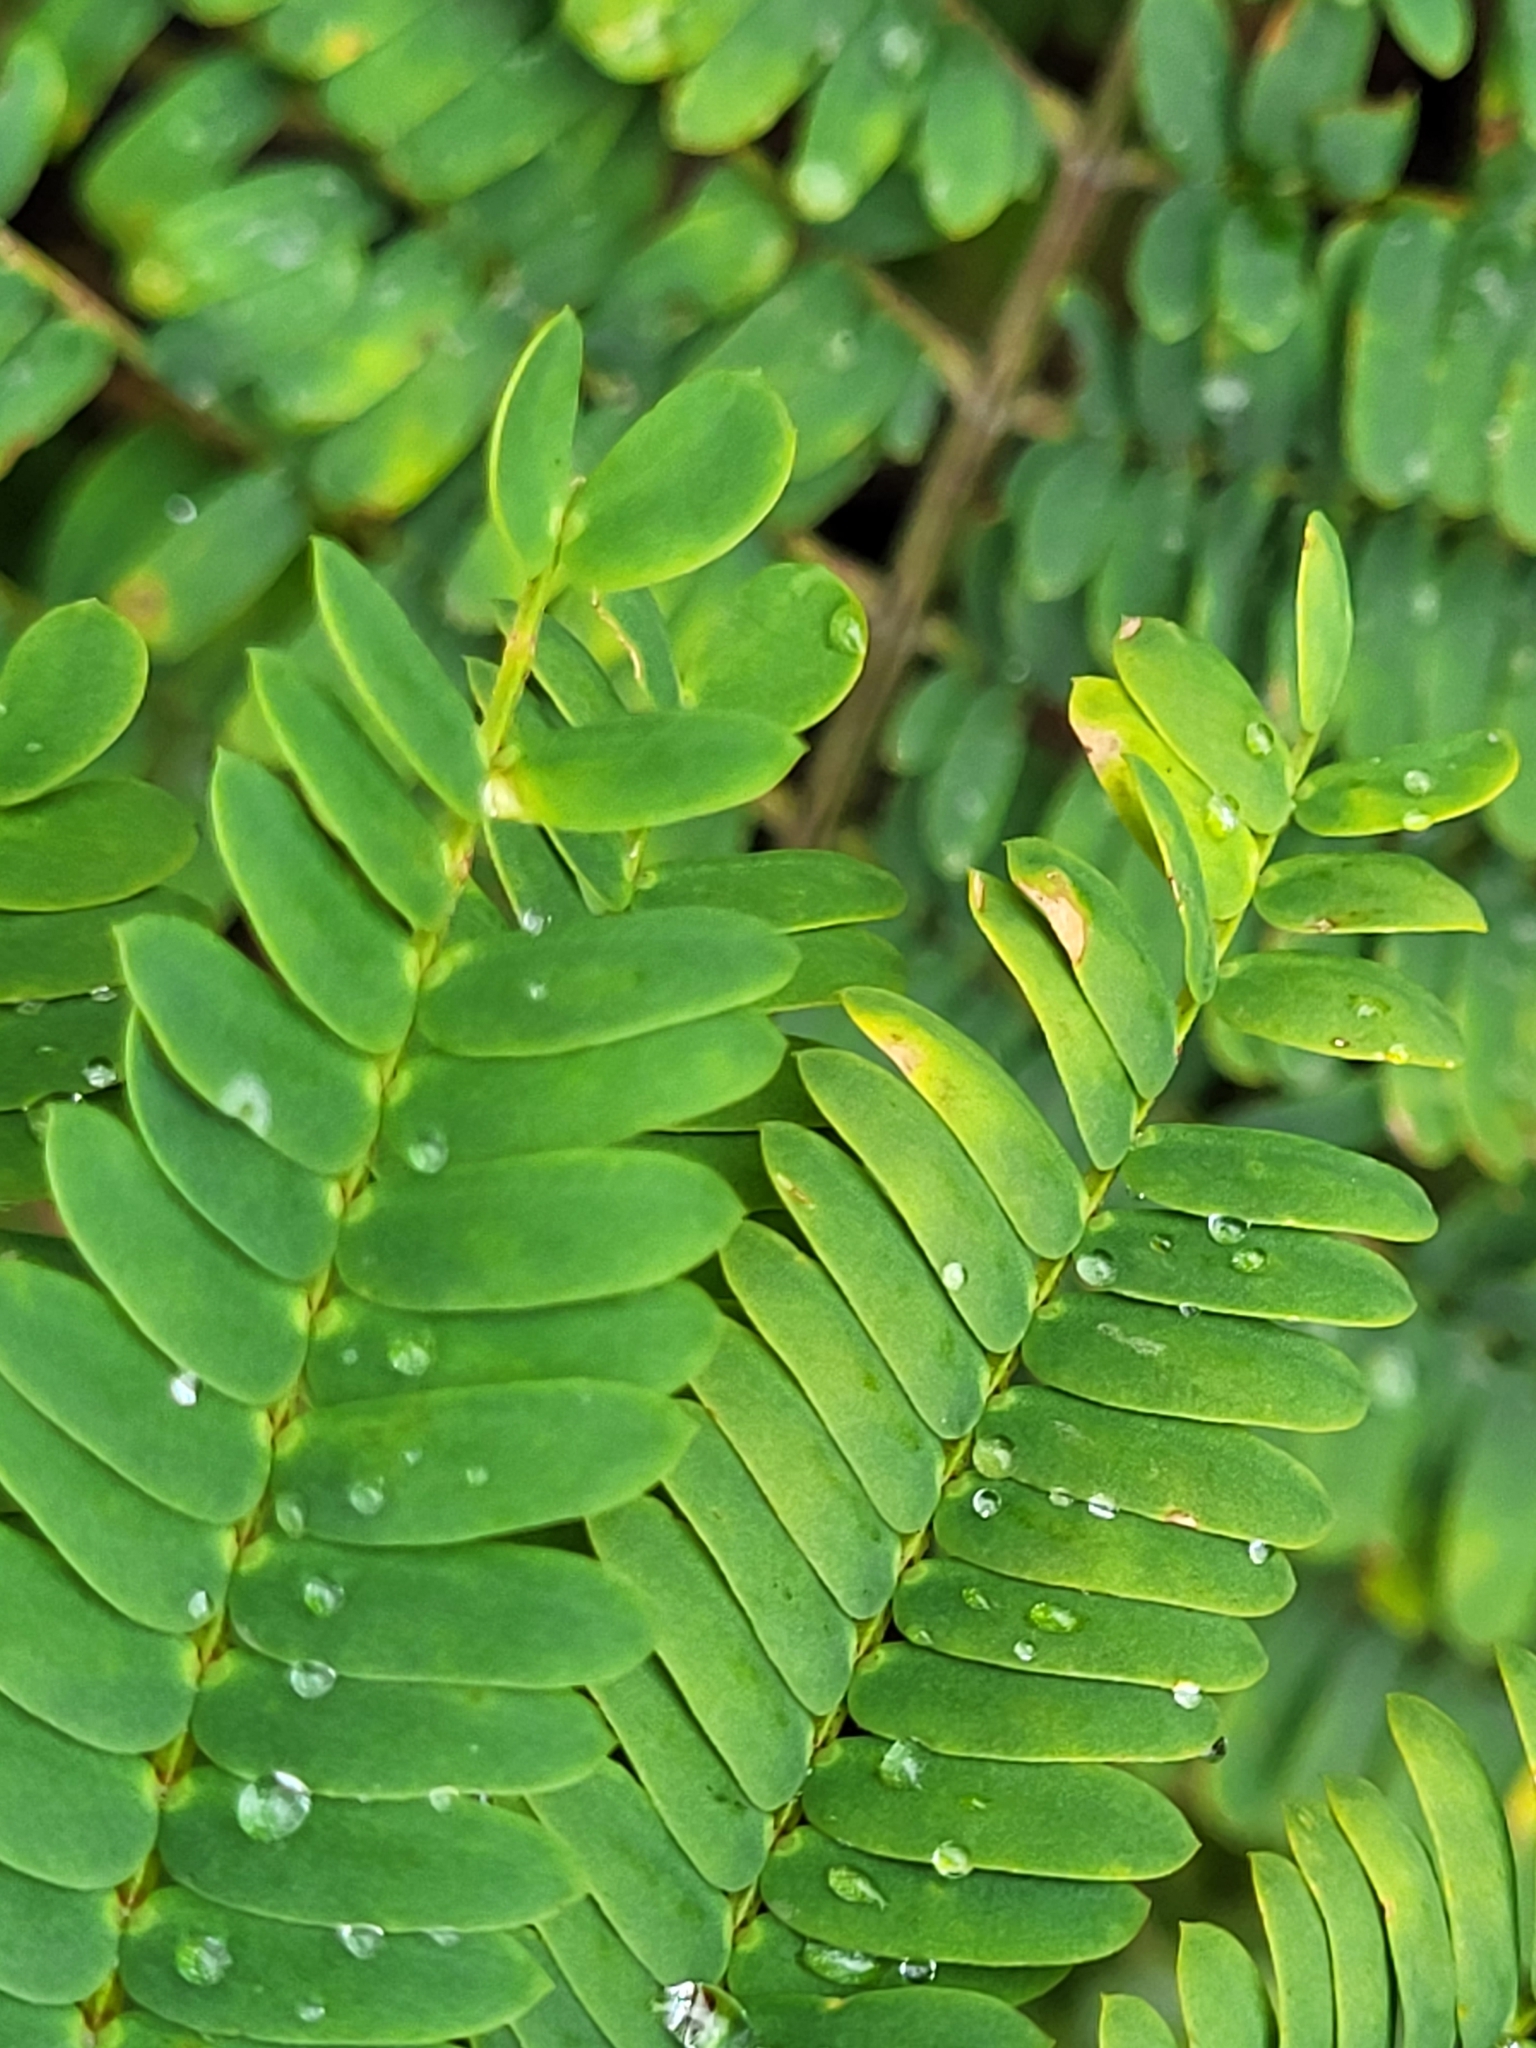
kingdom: Plantae
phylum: Tracheophyta
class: Magnoliopsida
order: Fabales
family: Fabaceae
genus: Paraserianthes
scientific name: Paraserianthes lophantha
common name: Plume albizia
